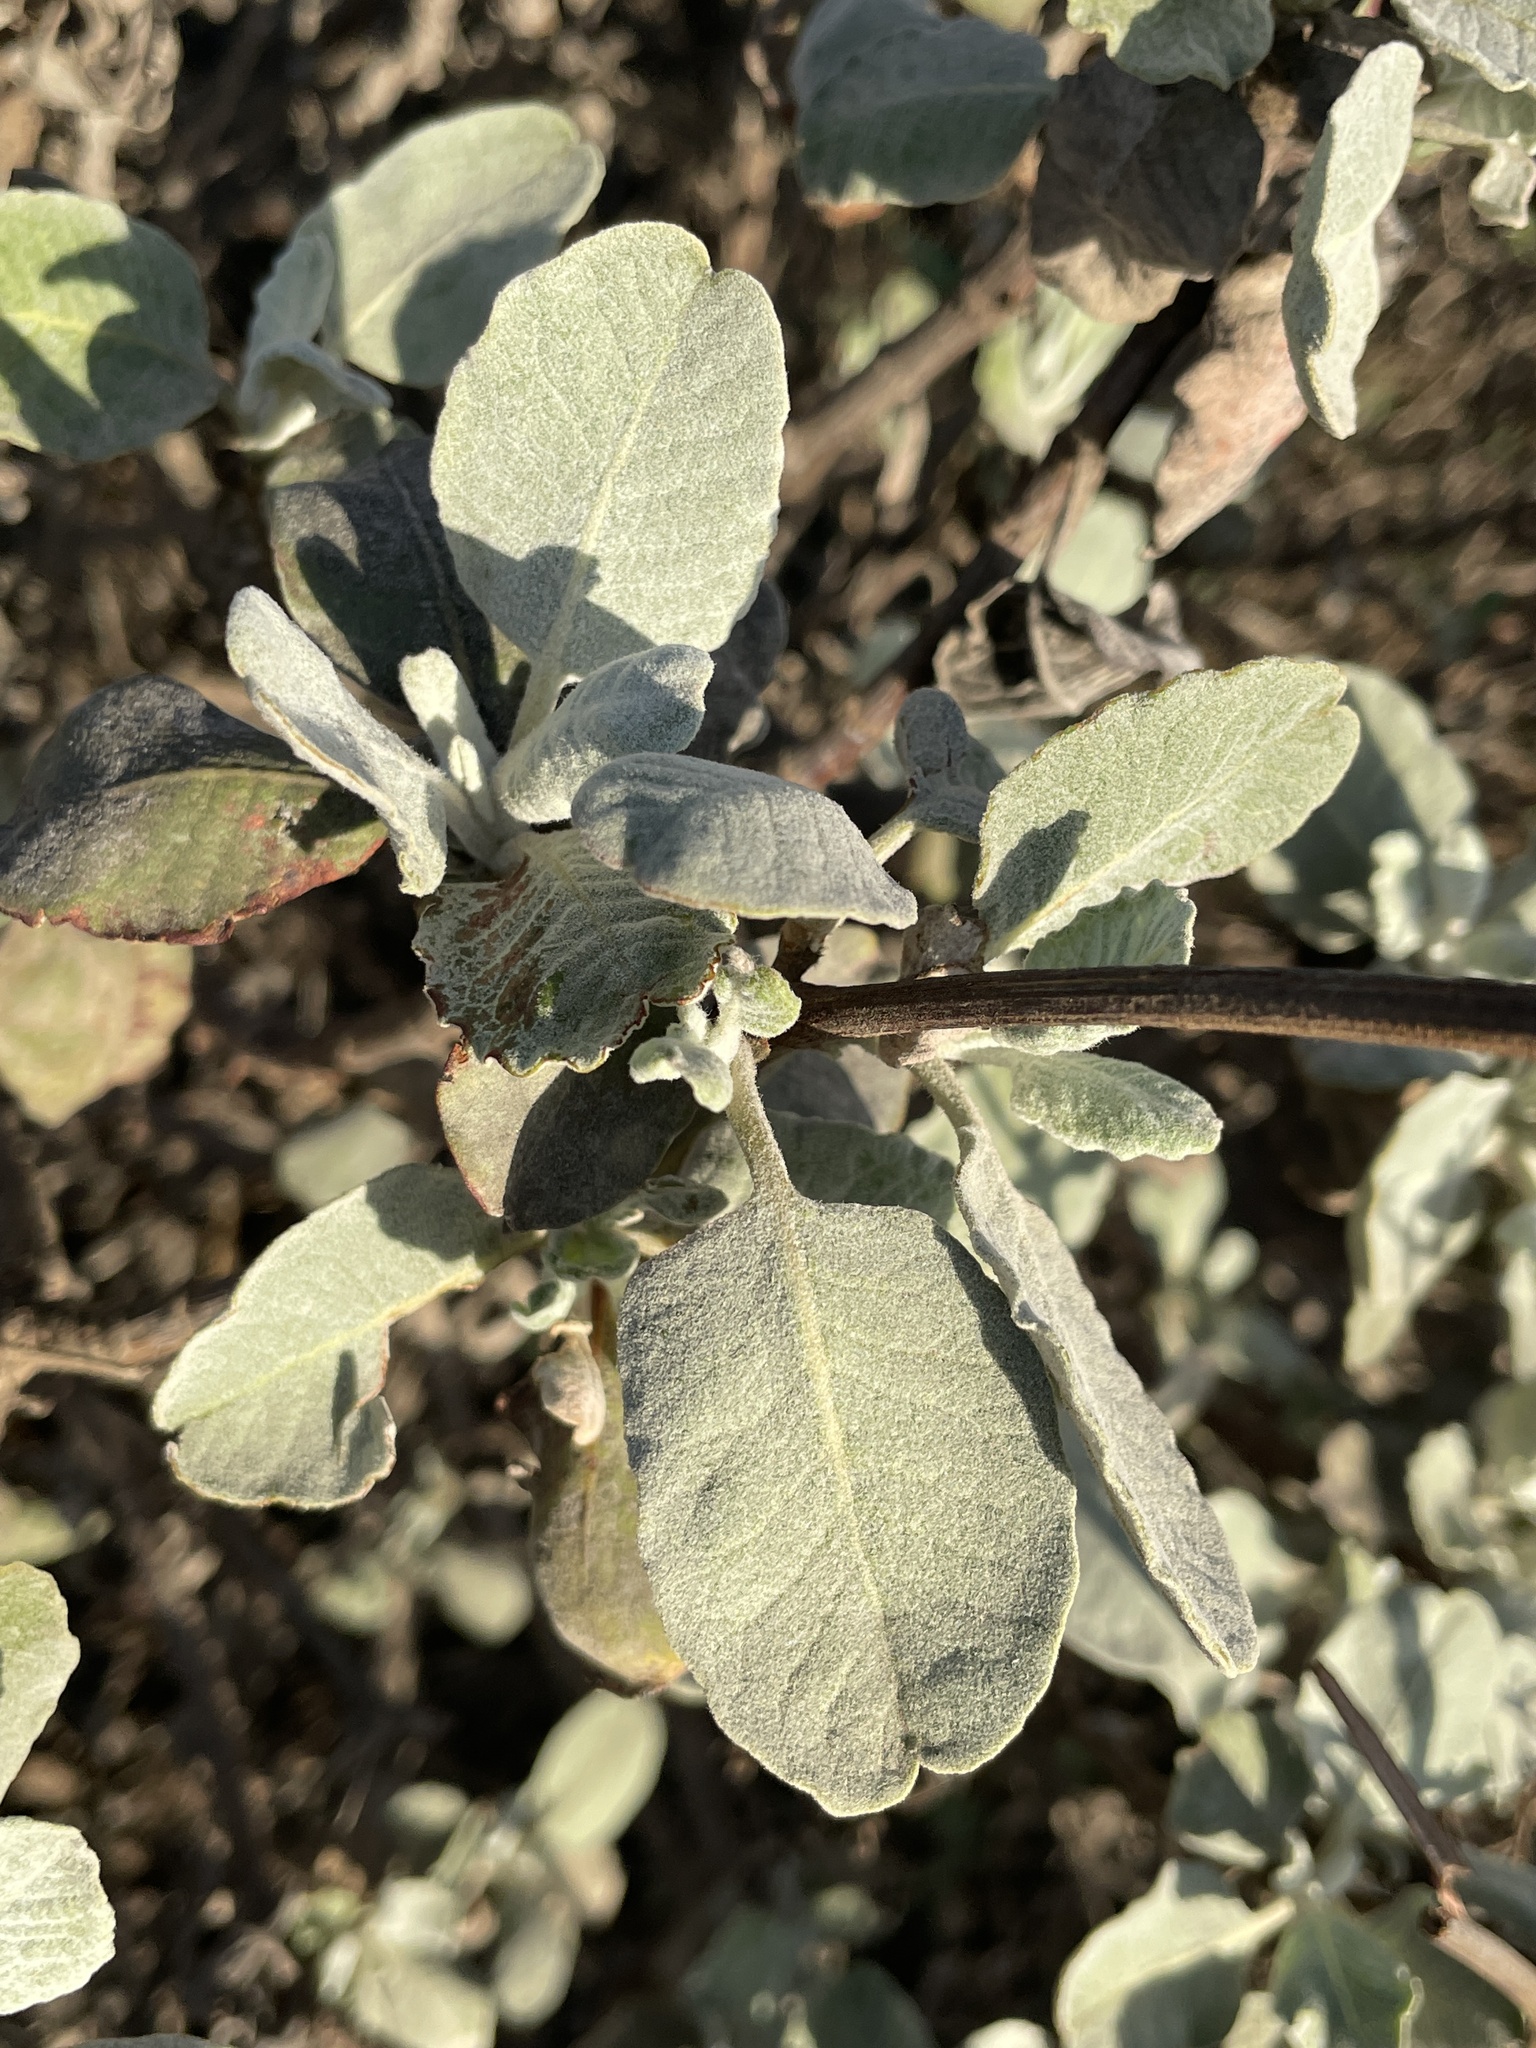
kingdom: Plantae
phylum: Tracheophyta
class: Magnoliopsida
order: Caryophyllales
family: Polygonaceae
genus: Eriogonum
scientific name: Eriogonum giganteum
